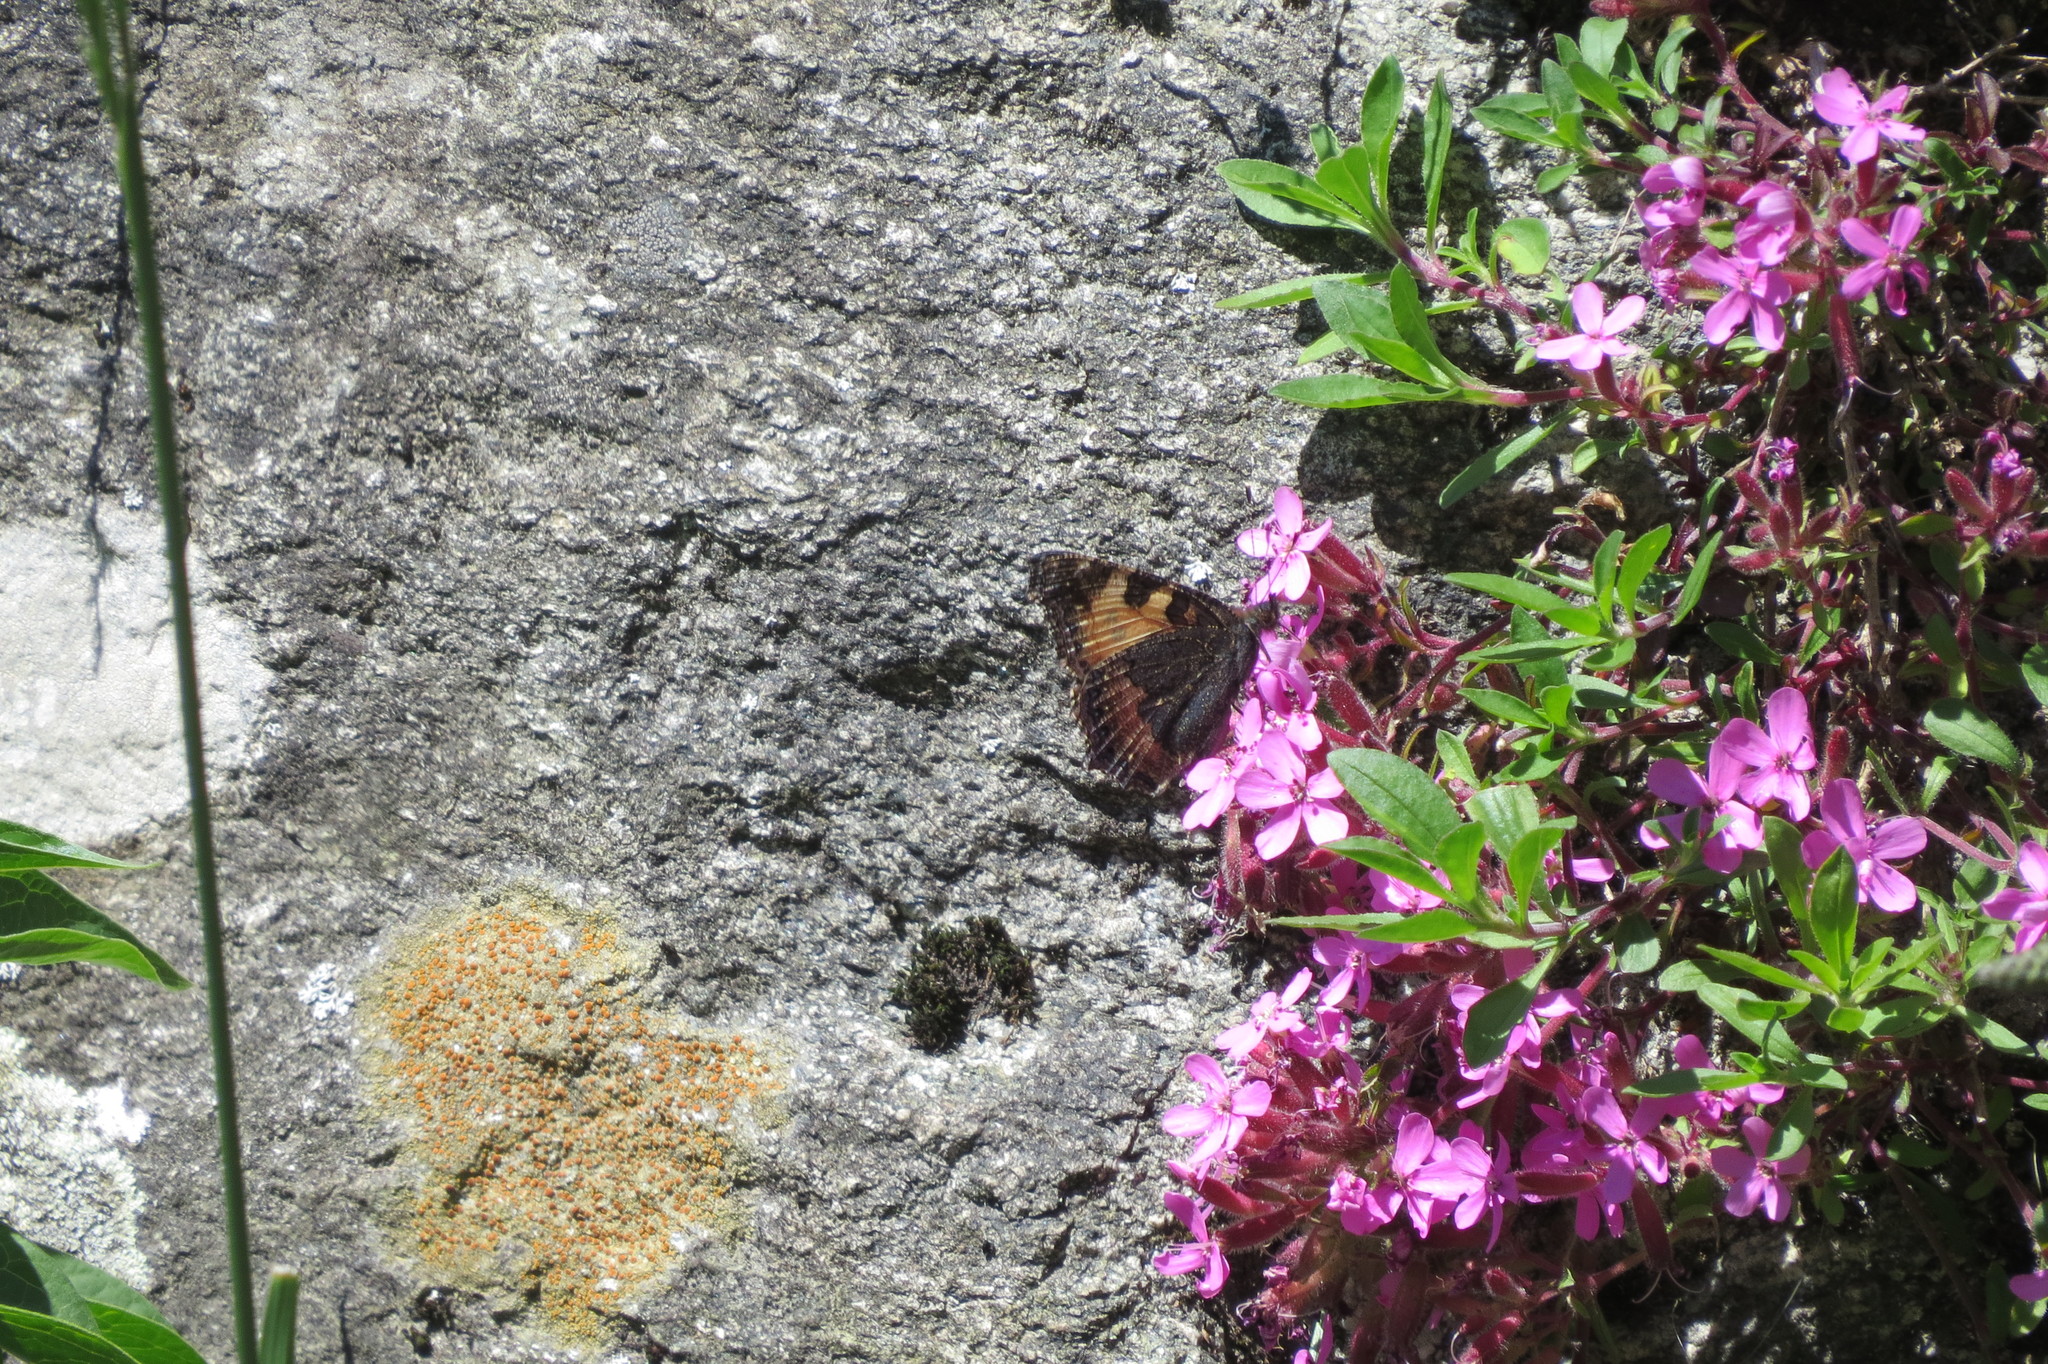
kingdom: Animalia
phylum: Arthropoda
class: Insecta
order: Lepidoptera
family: Nymphalidae
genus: Aglais
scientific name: Aglais urticae
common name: Small tortoiseshell
